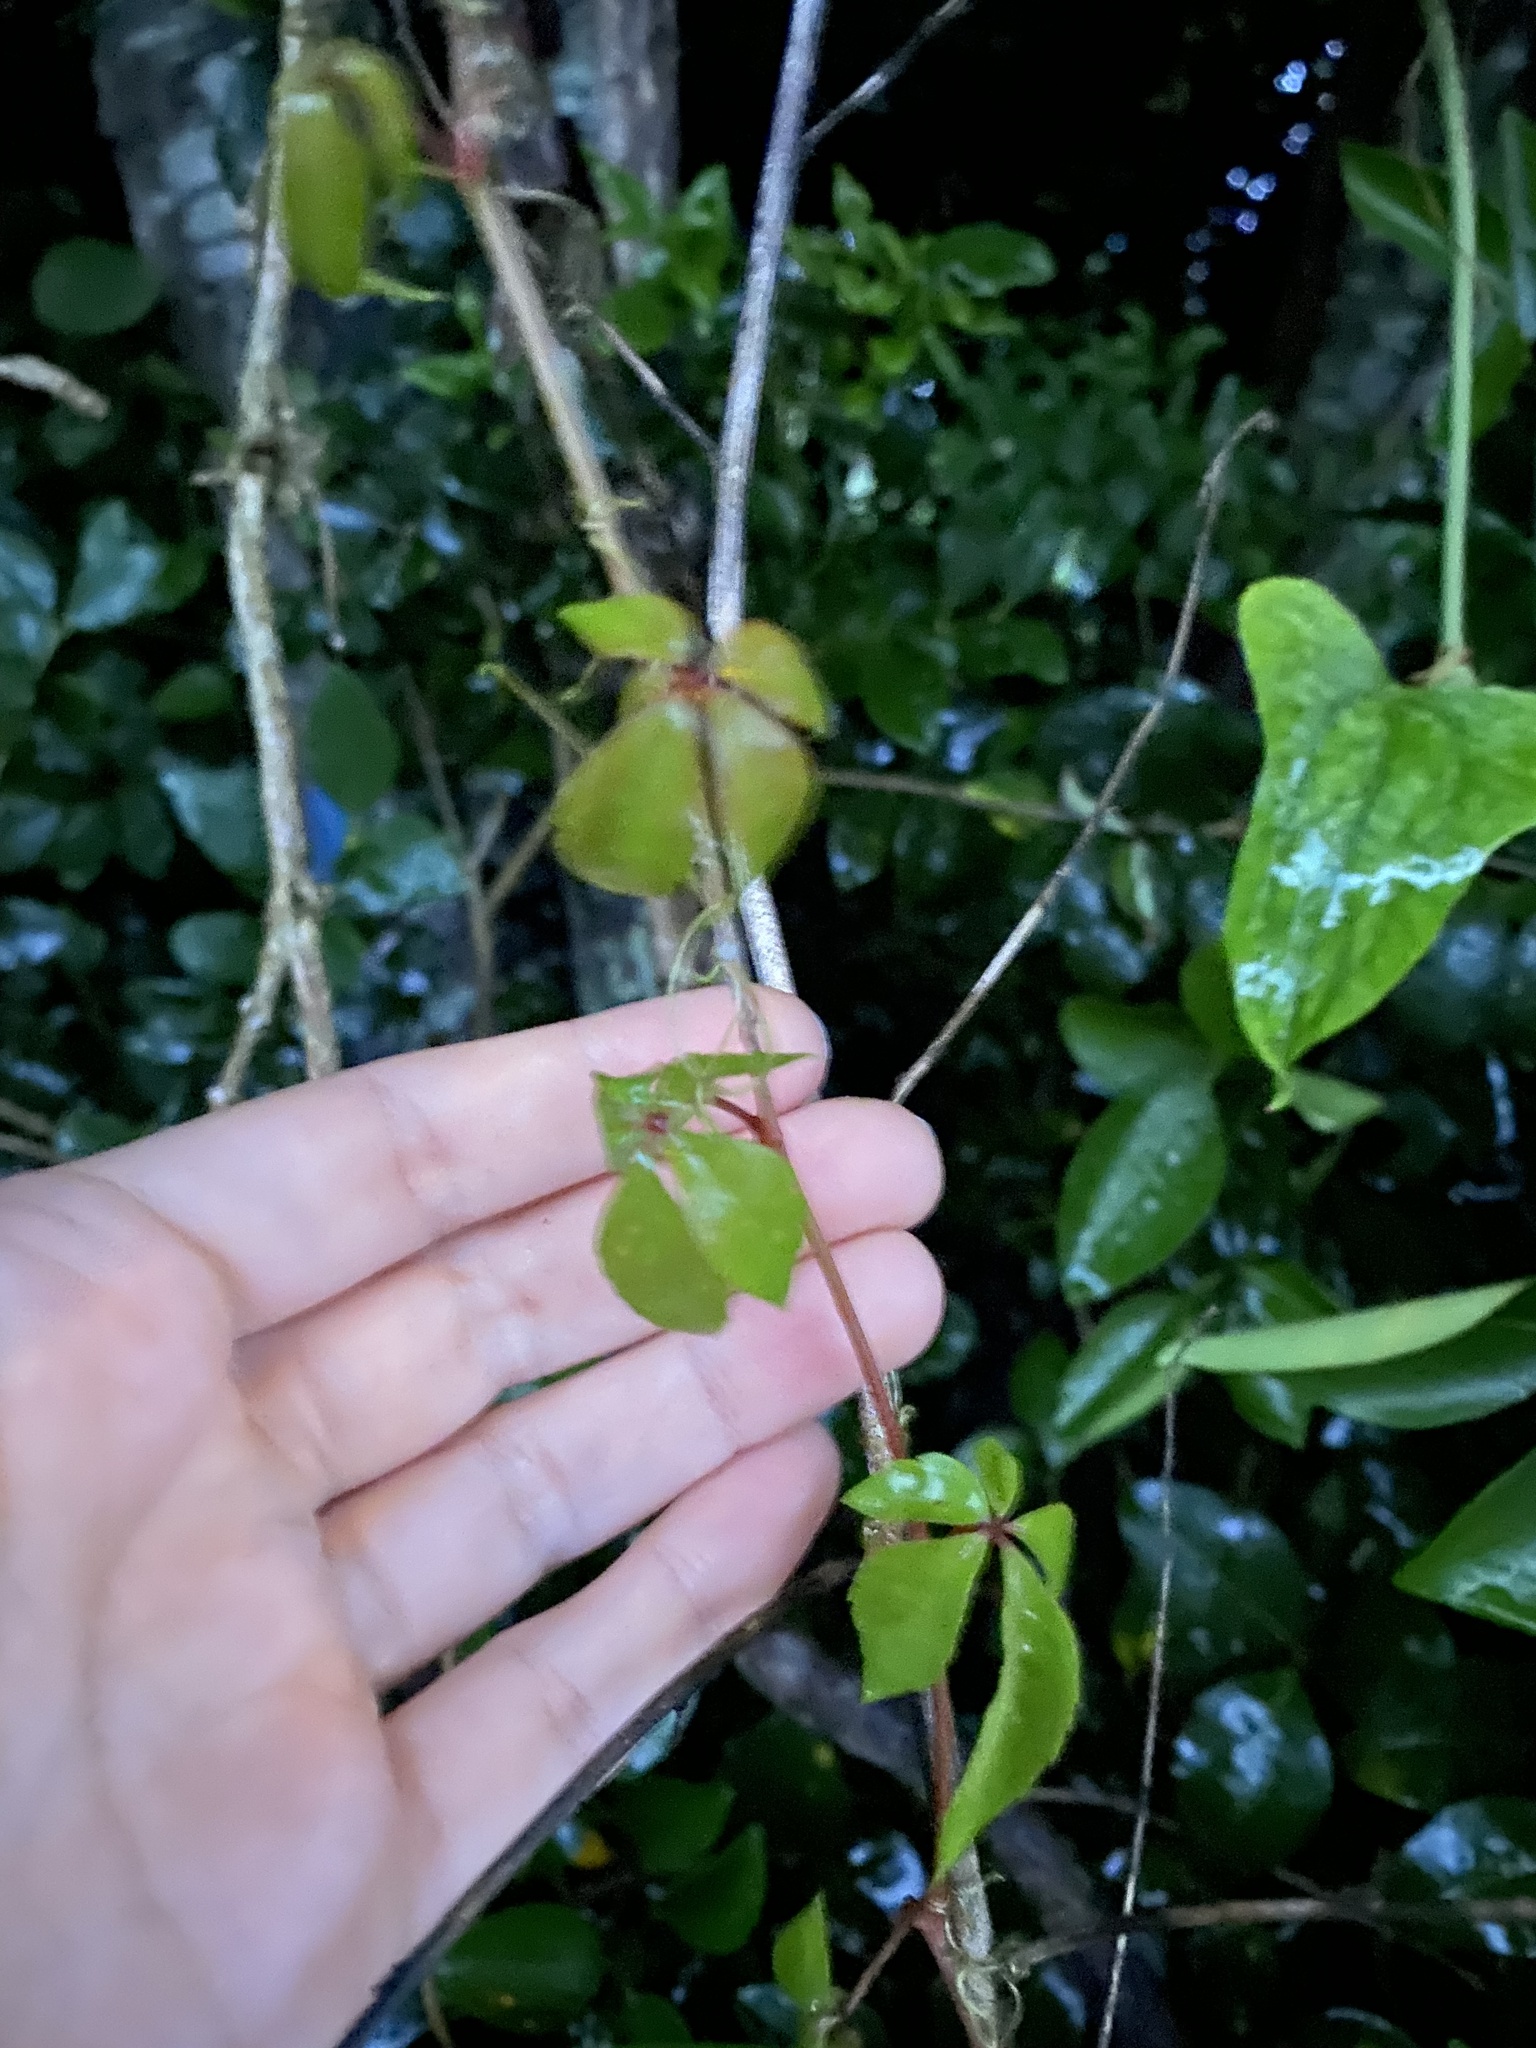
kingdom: Plantae
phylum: Tracheophyta
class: Magnoliopsida
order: Vitales
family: Vitaceae
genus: Parthenocissus
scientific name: Parthenocissus quinquefolia
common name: Virginia-creeper
